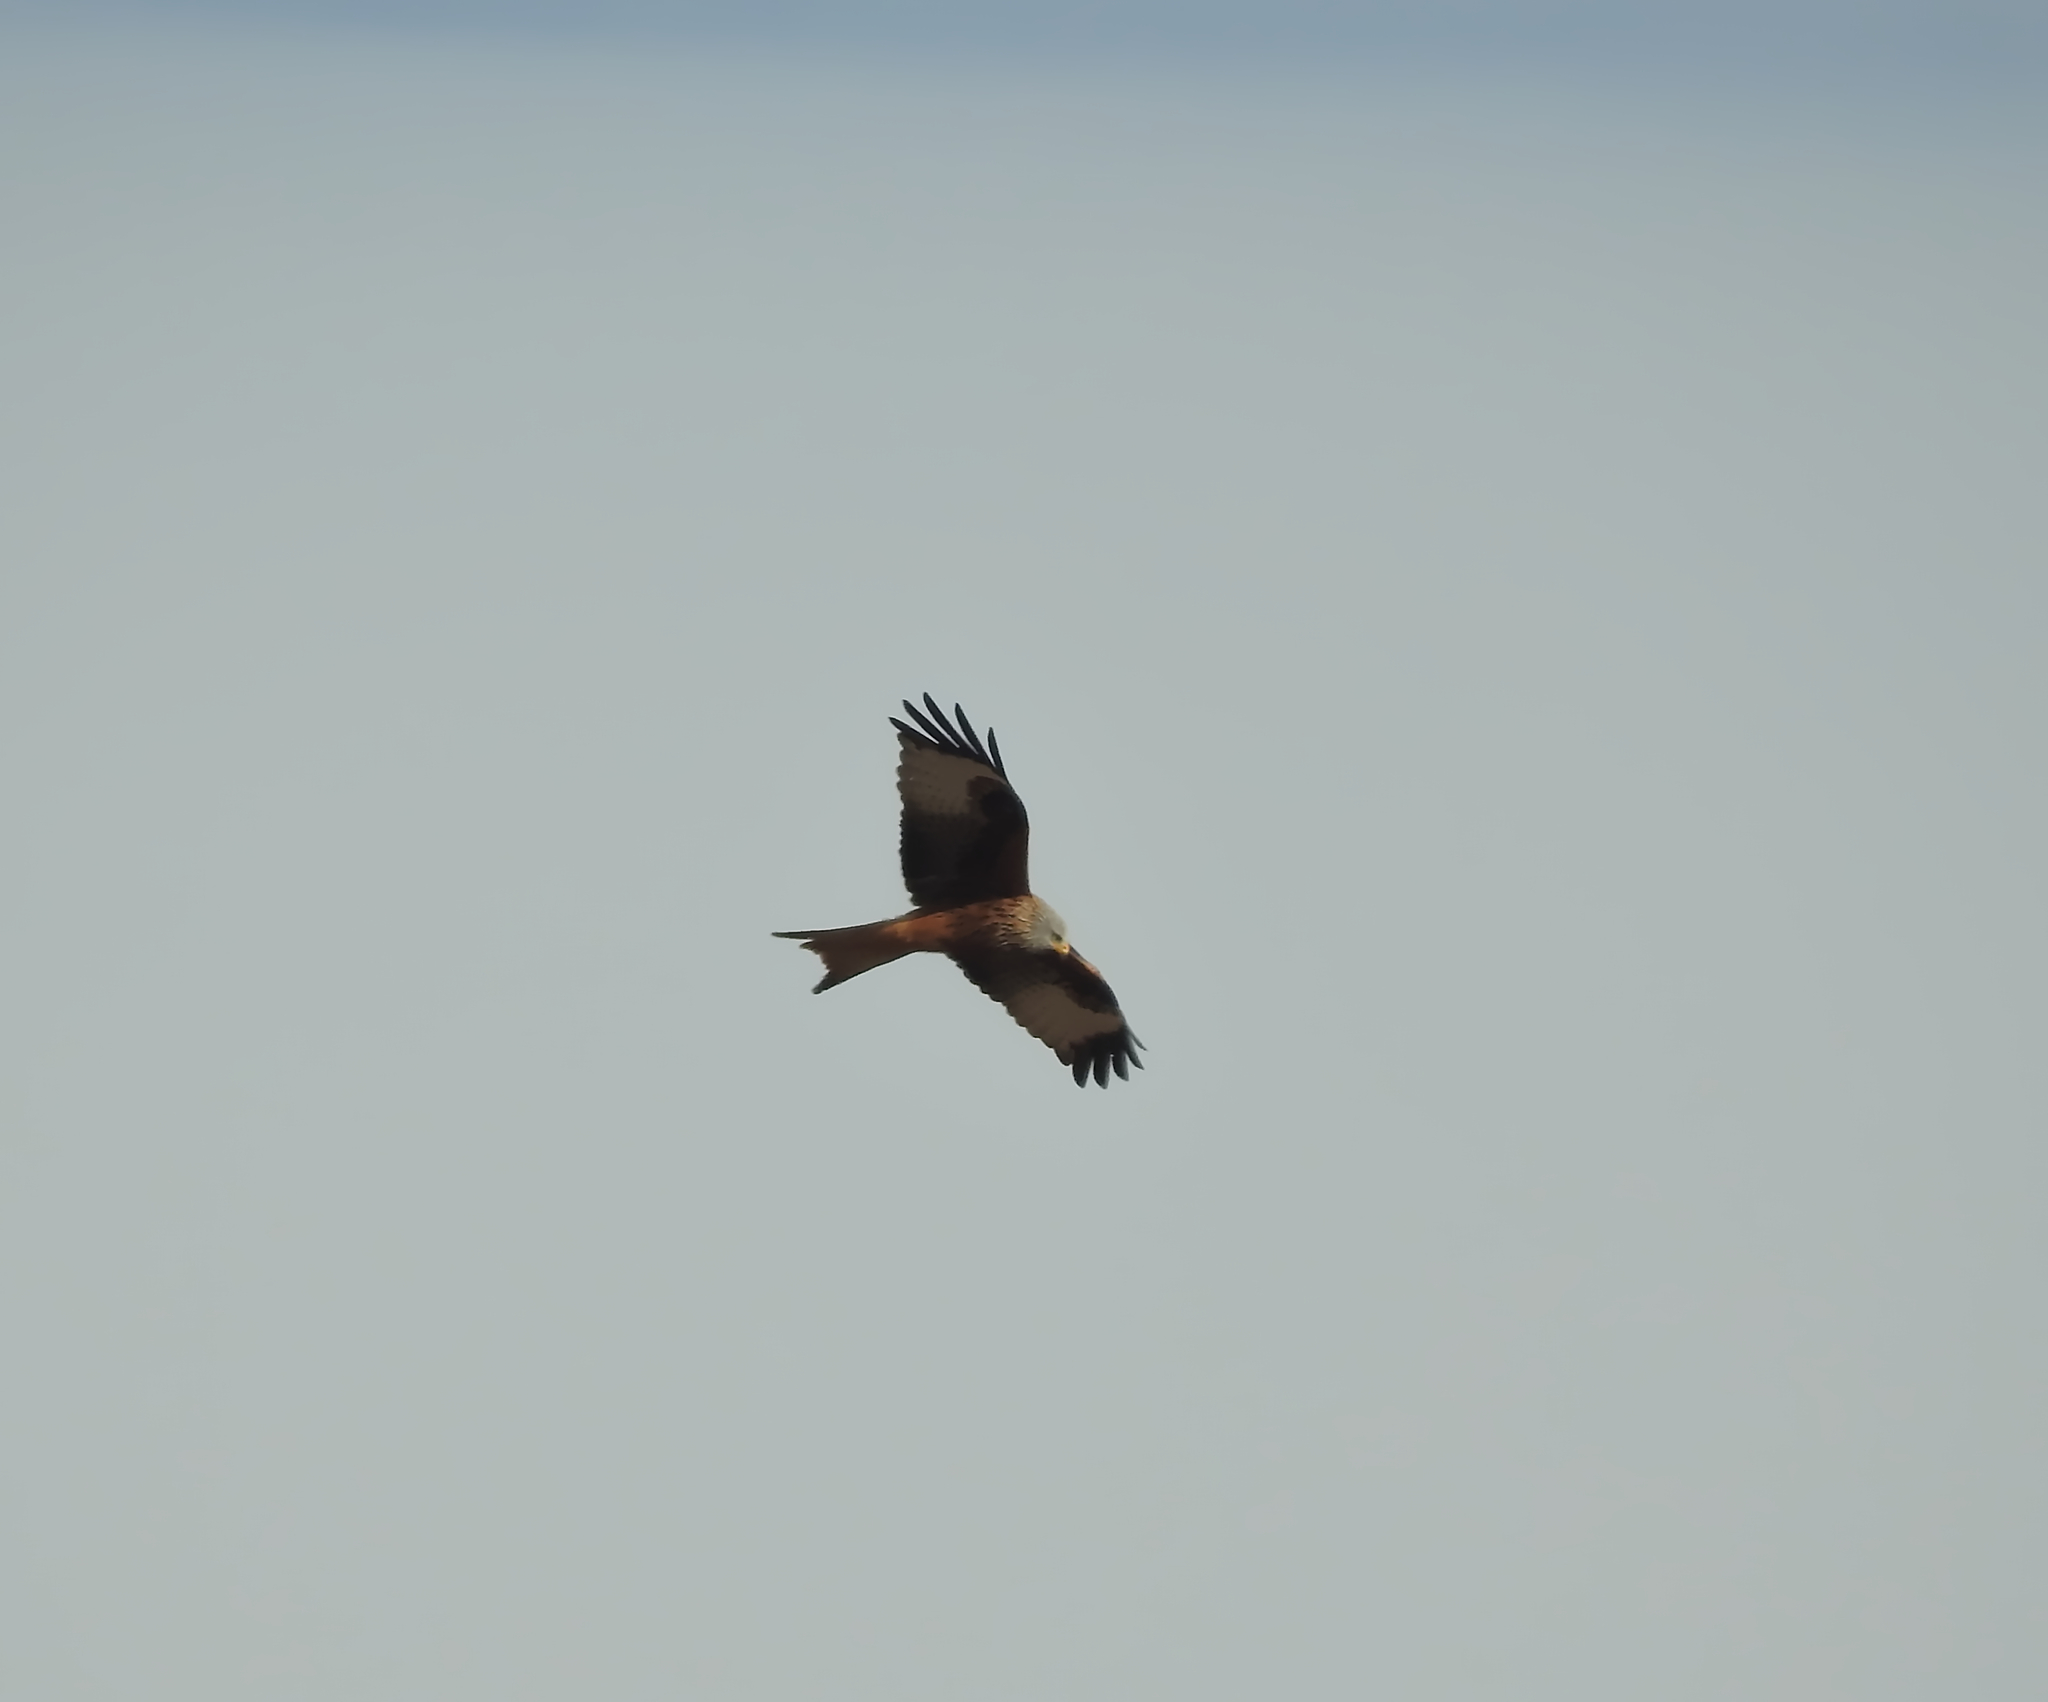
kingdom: Animalia
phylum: Chordata
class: Aves
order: Accipitriformes
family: Accipitridae
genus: Milvus
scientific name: Milvus milvus
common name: Red kite
